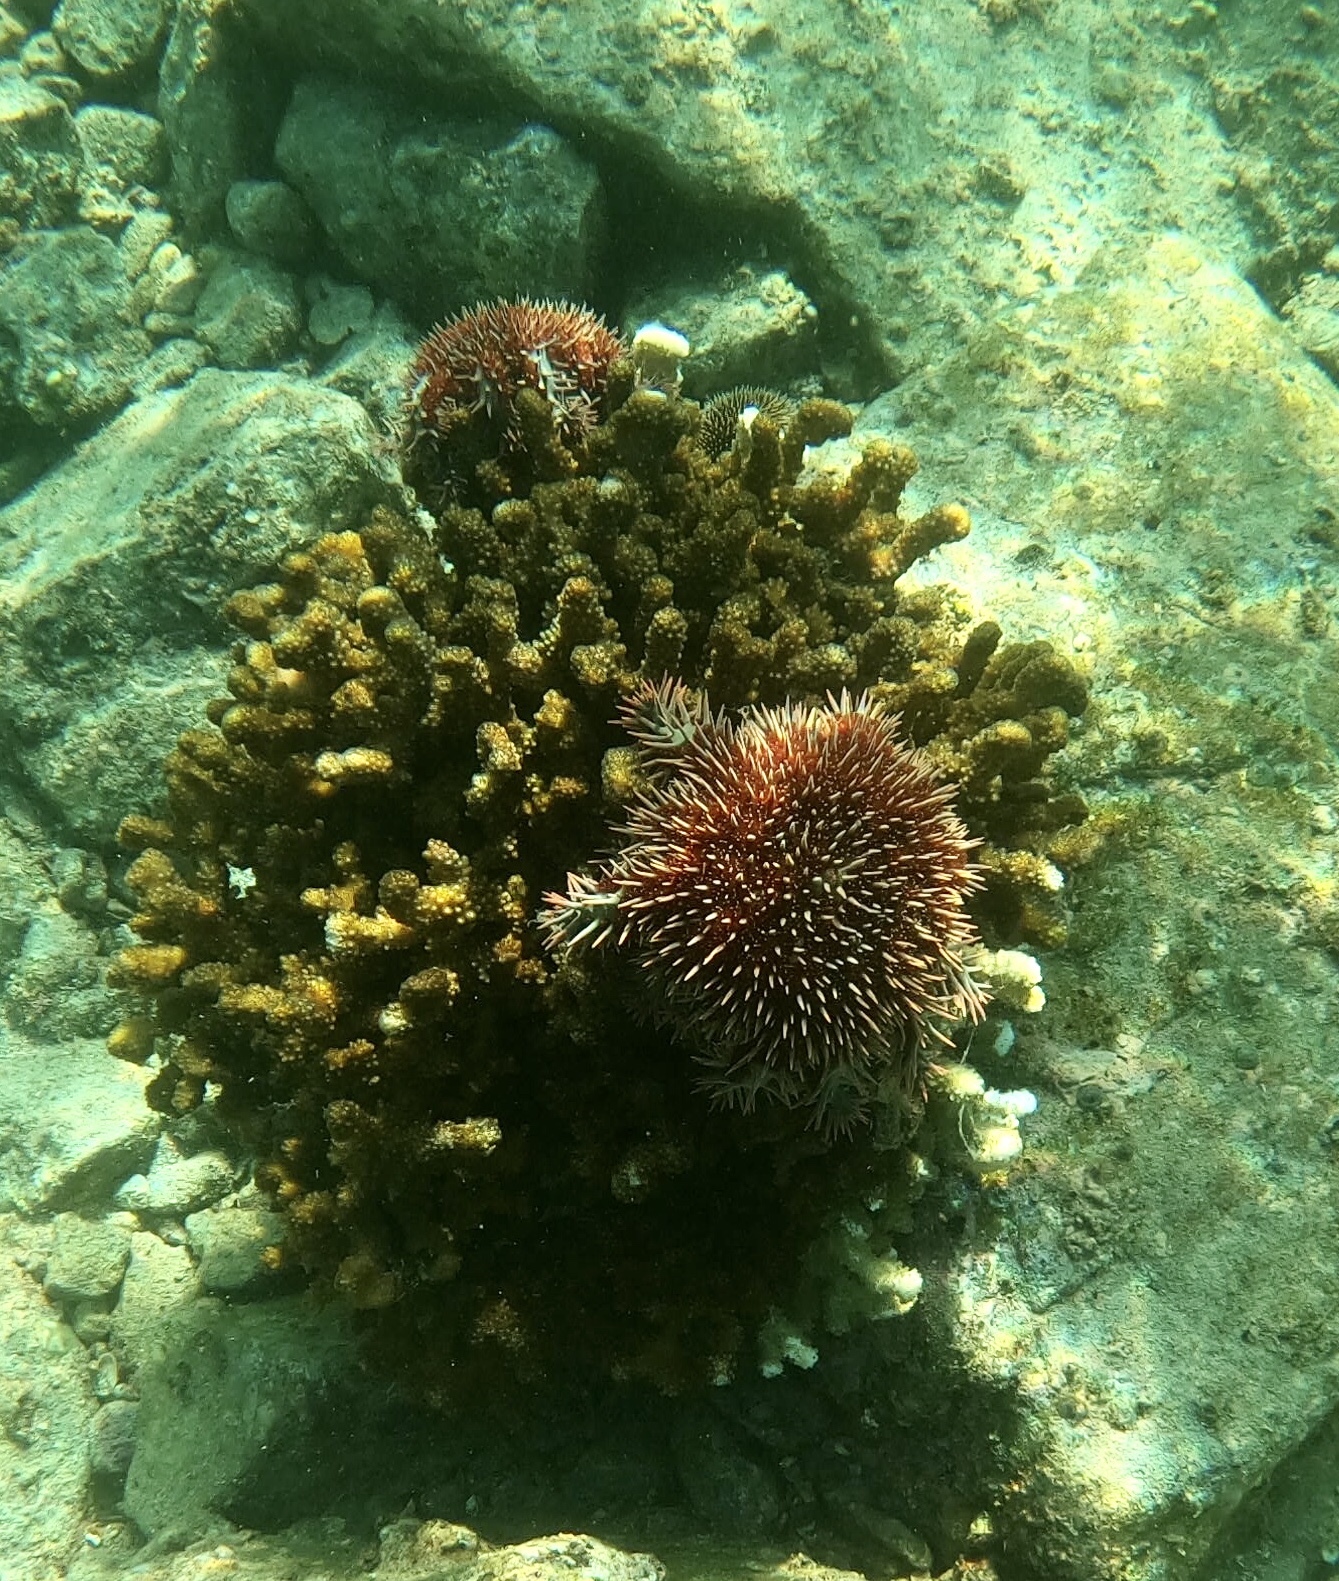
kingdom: Animalia
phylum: Echinodermata
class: Asteroidea
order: Valvatida
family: Acanthasteridae
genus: Acanthaster
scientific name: Acanthaster planci
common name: Crown-of-thorns
